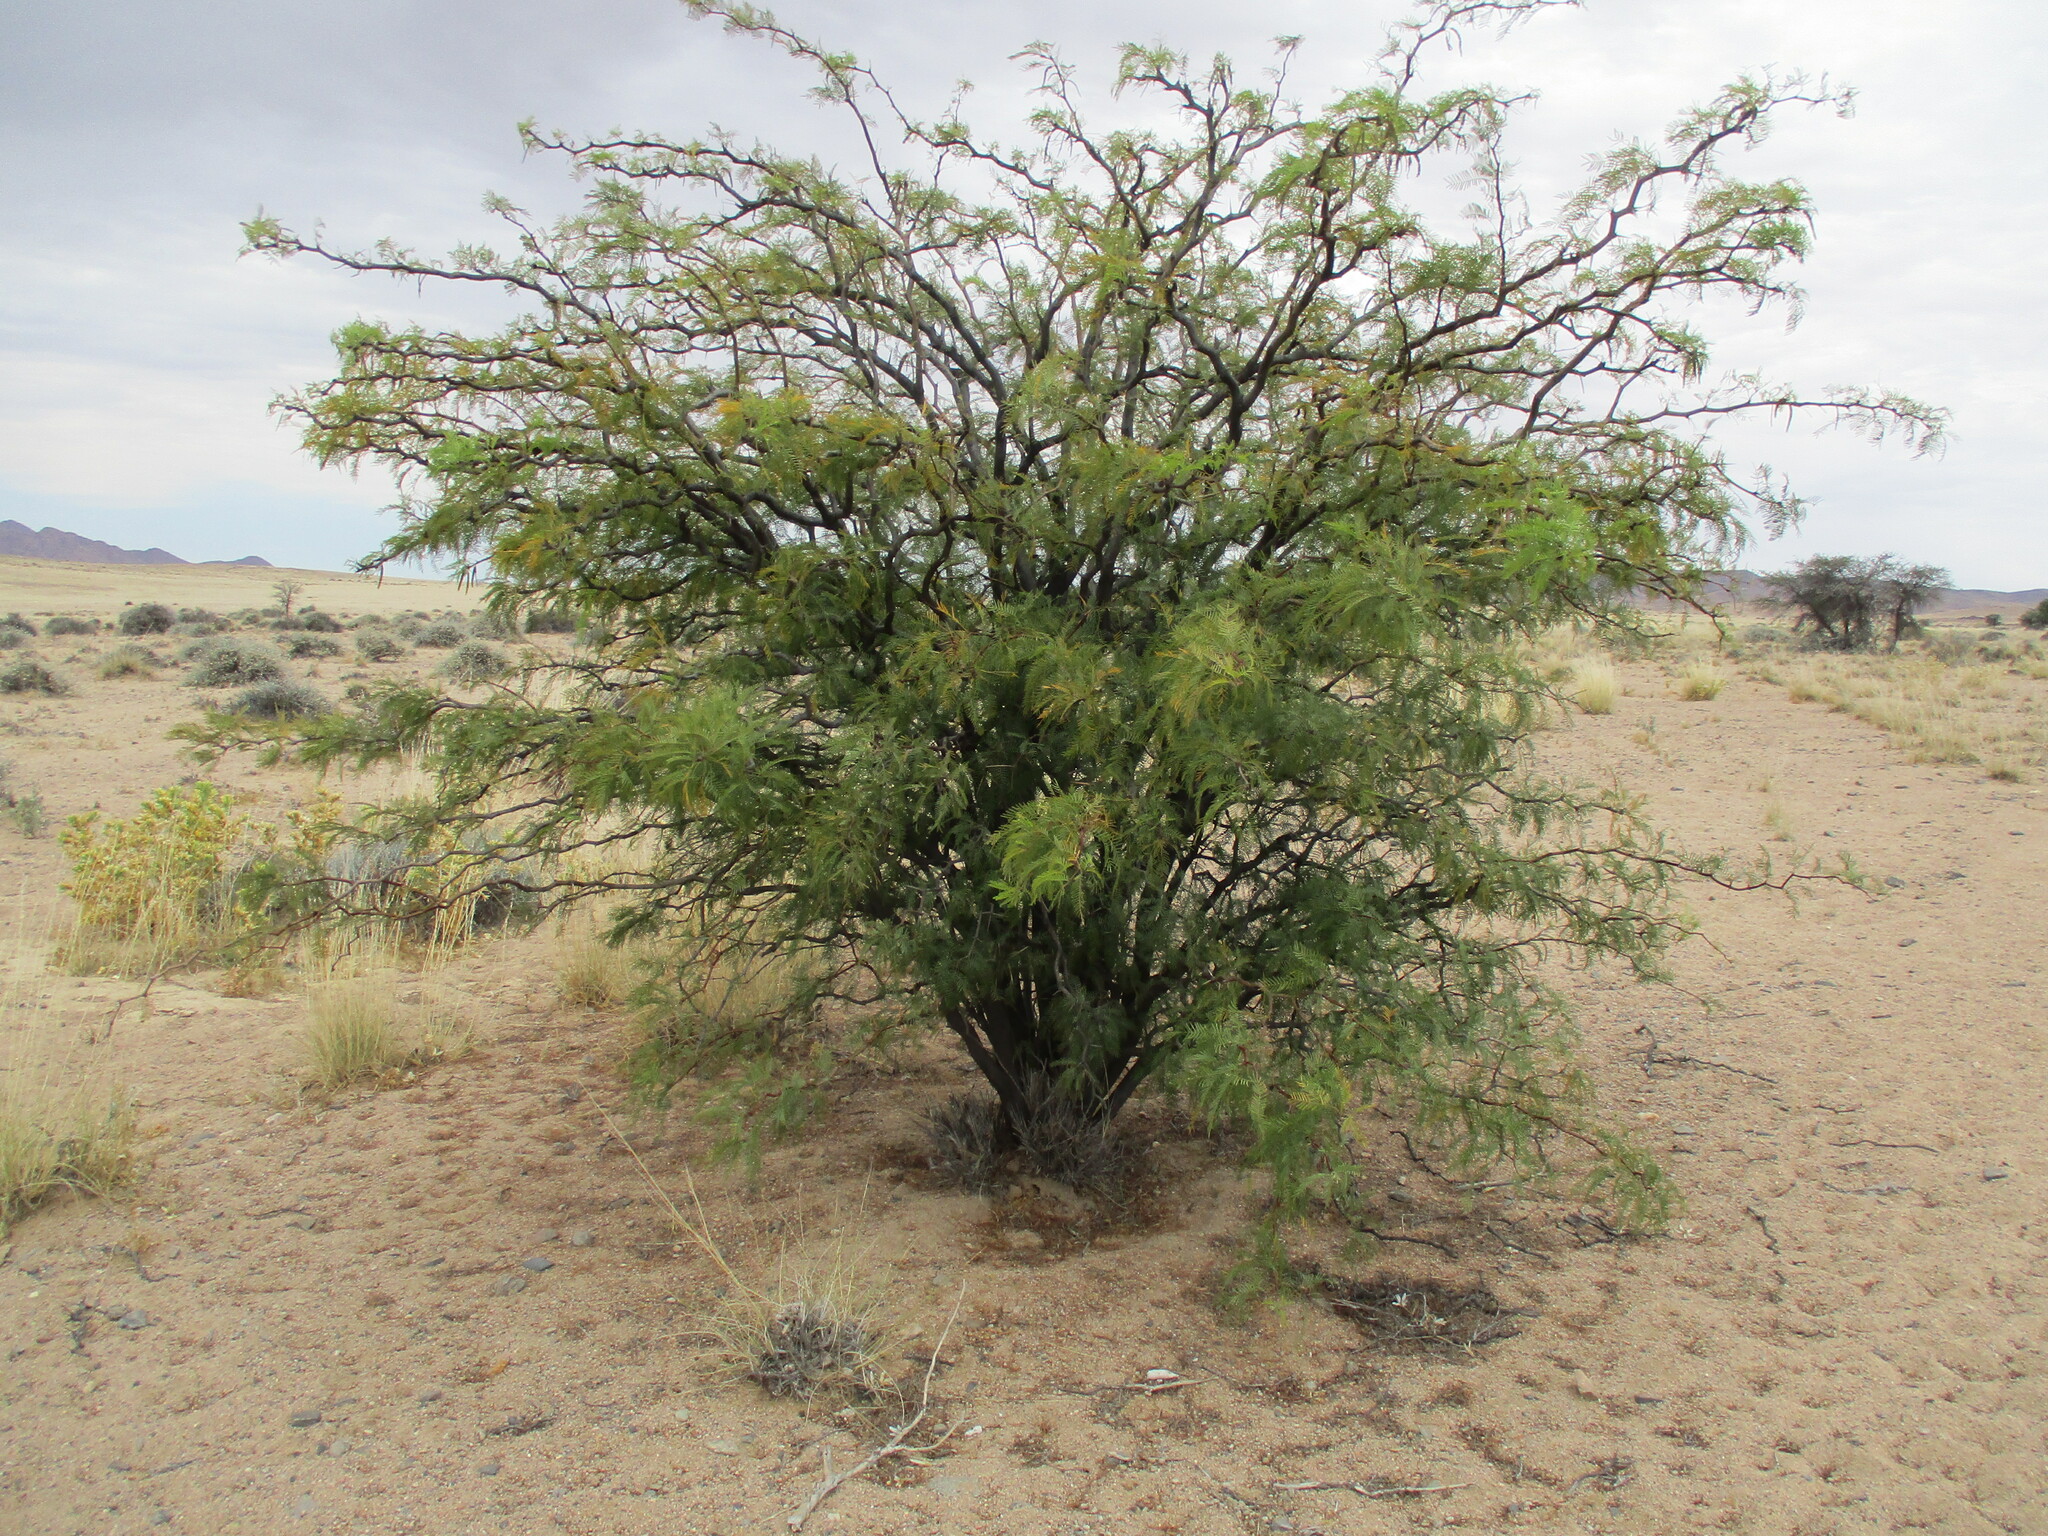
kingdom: Plantae
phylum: Tracheophyta
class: Magnoliopsida
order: Fabales
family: Fabaceae
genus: Prosopis
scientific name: Prosopis glandulosa
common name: Honey mesquite
